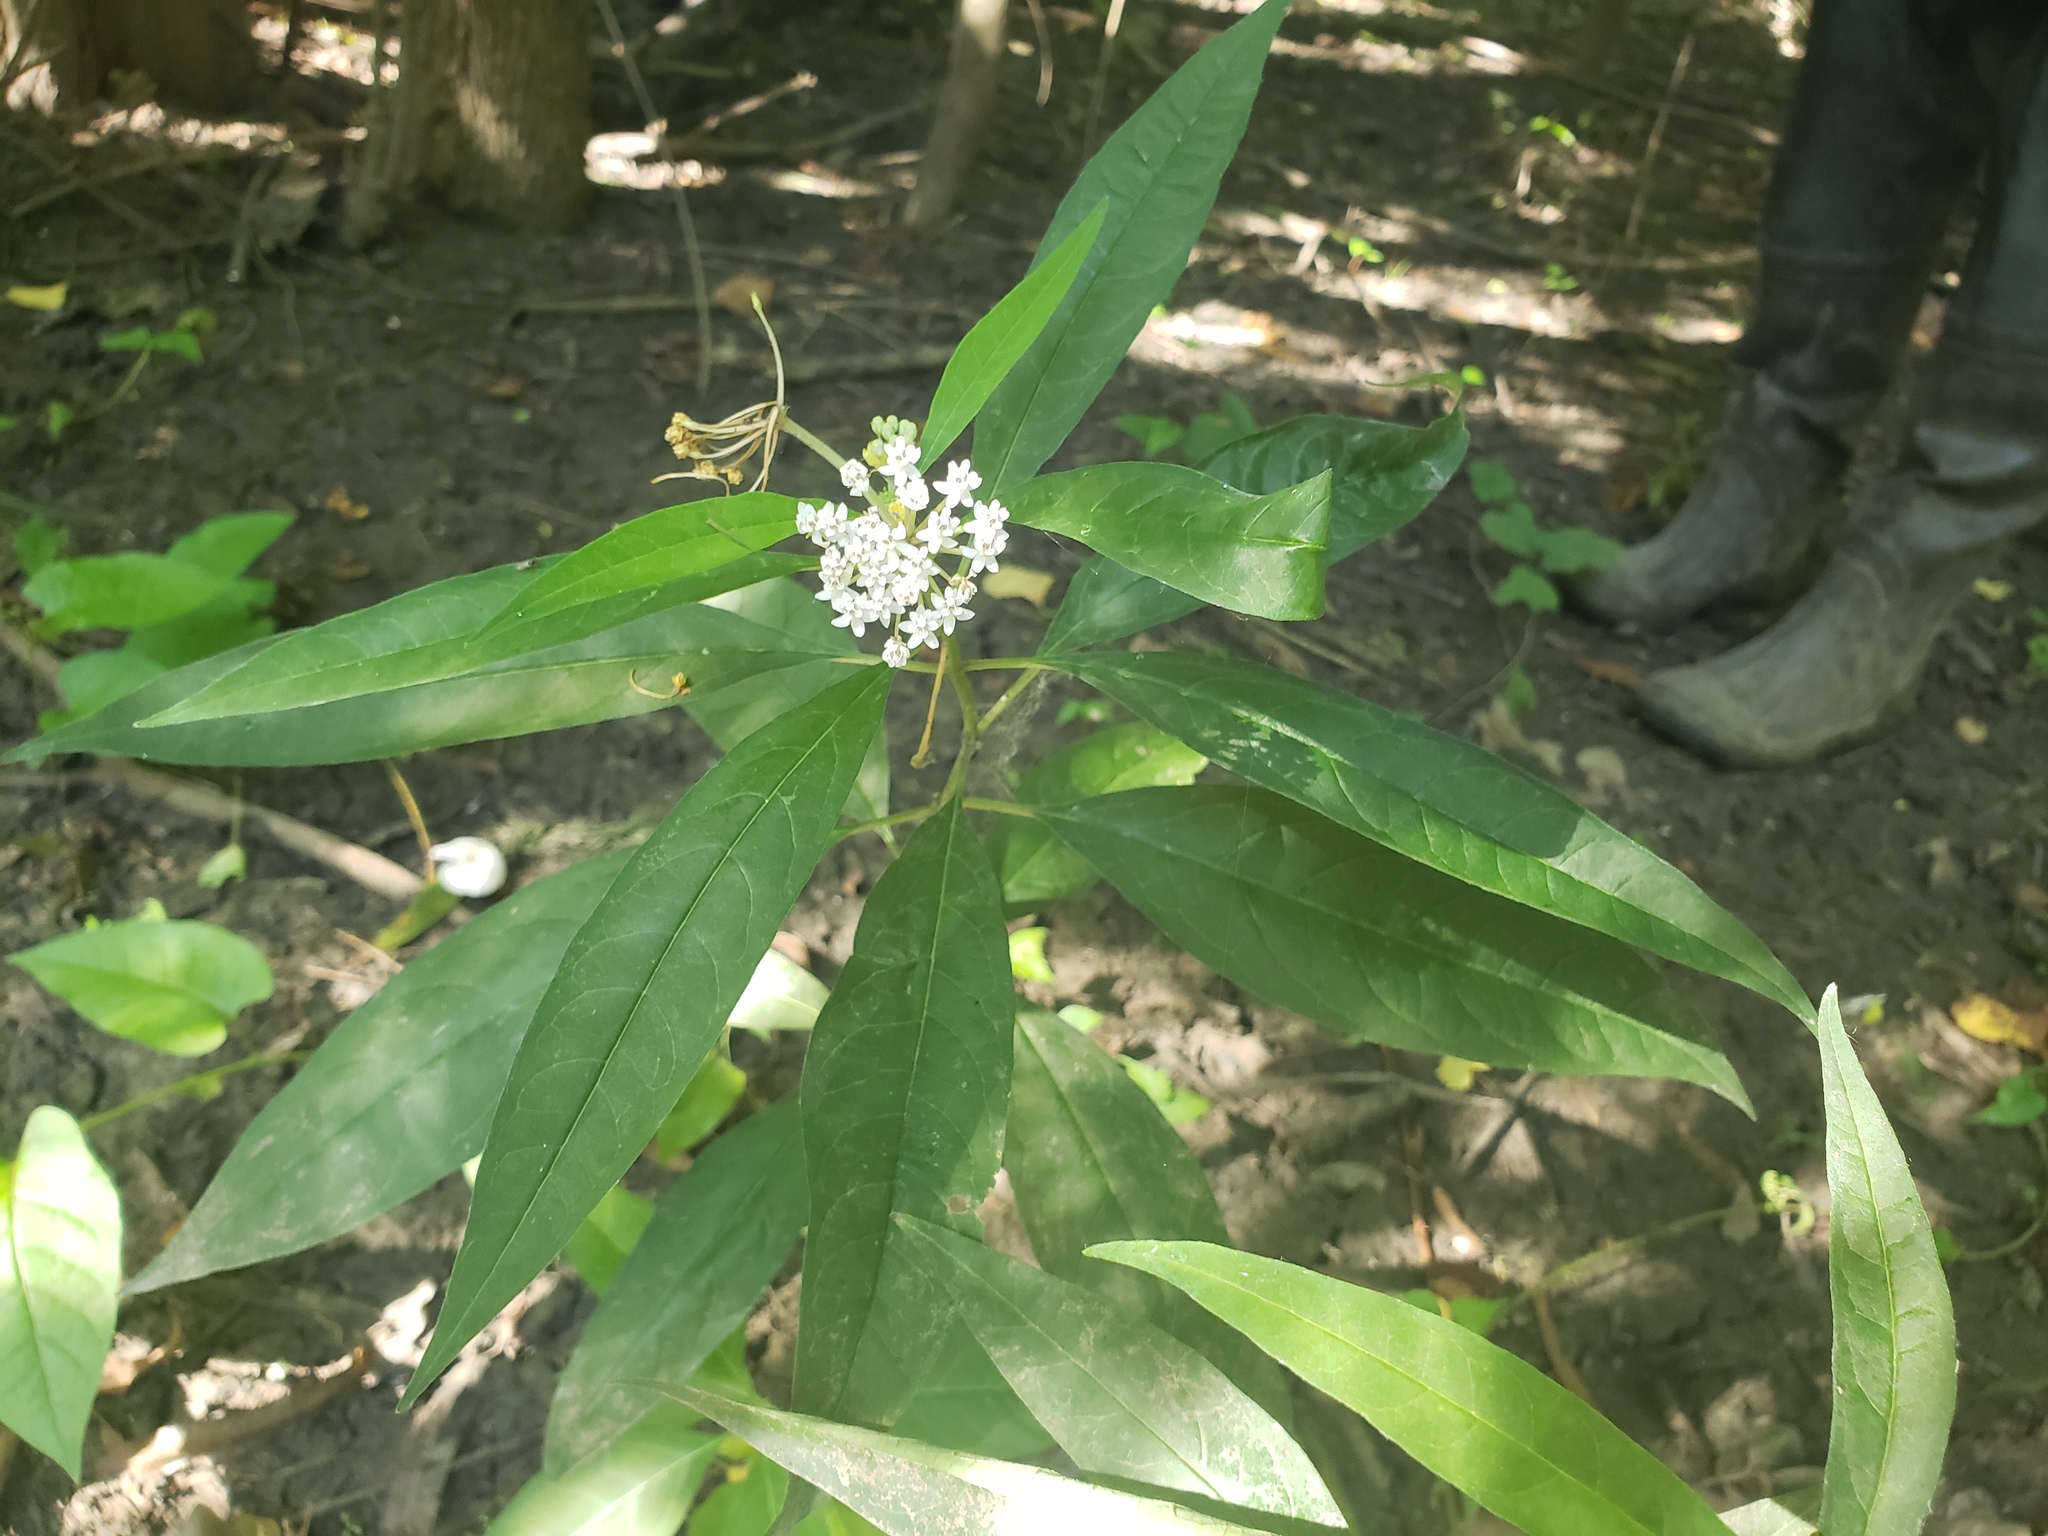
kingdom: Plantae
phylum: Tracheophyta
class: Magnoliopsida
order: Gentianales
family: Apocynaceae
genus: Asclepias
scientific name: Asclepias perennis
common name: Smooth-seed milkweed
